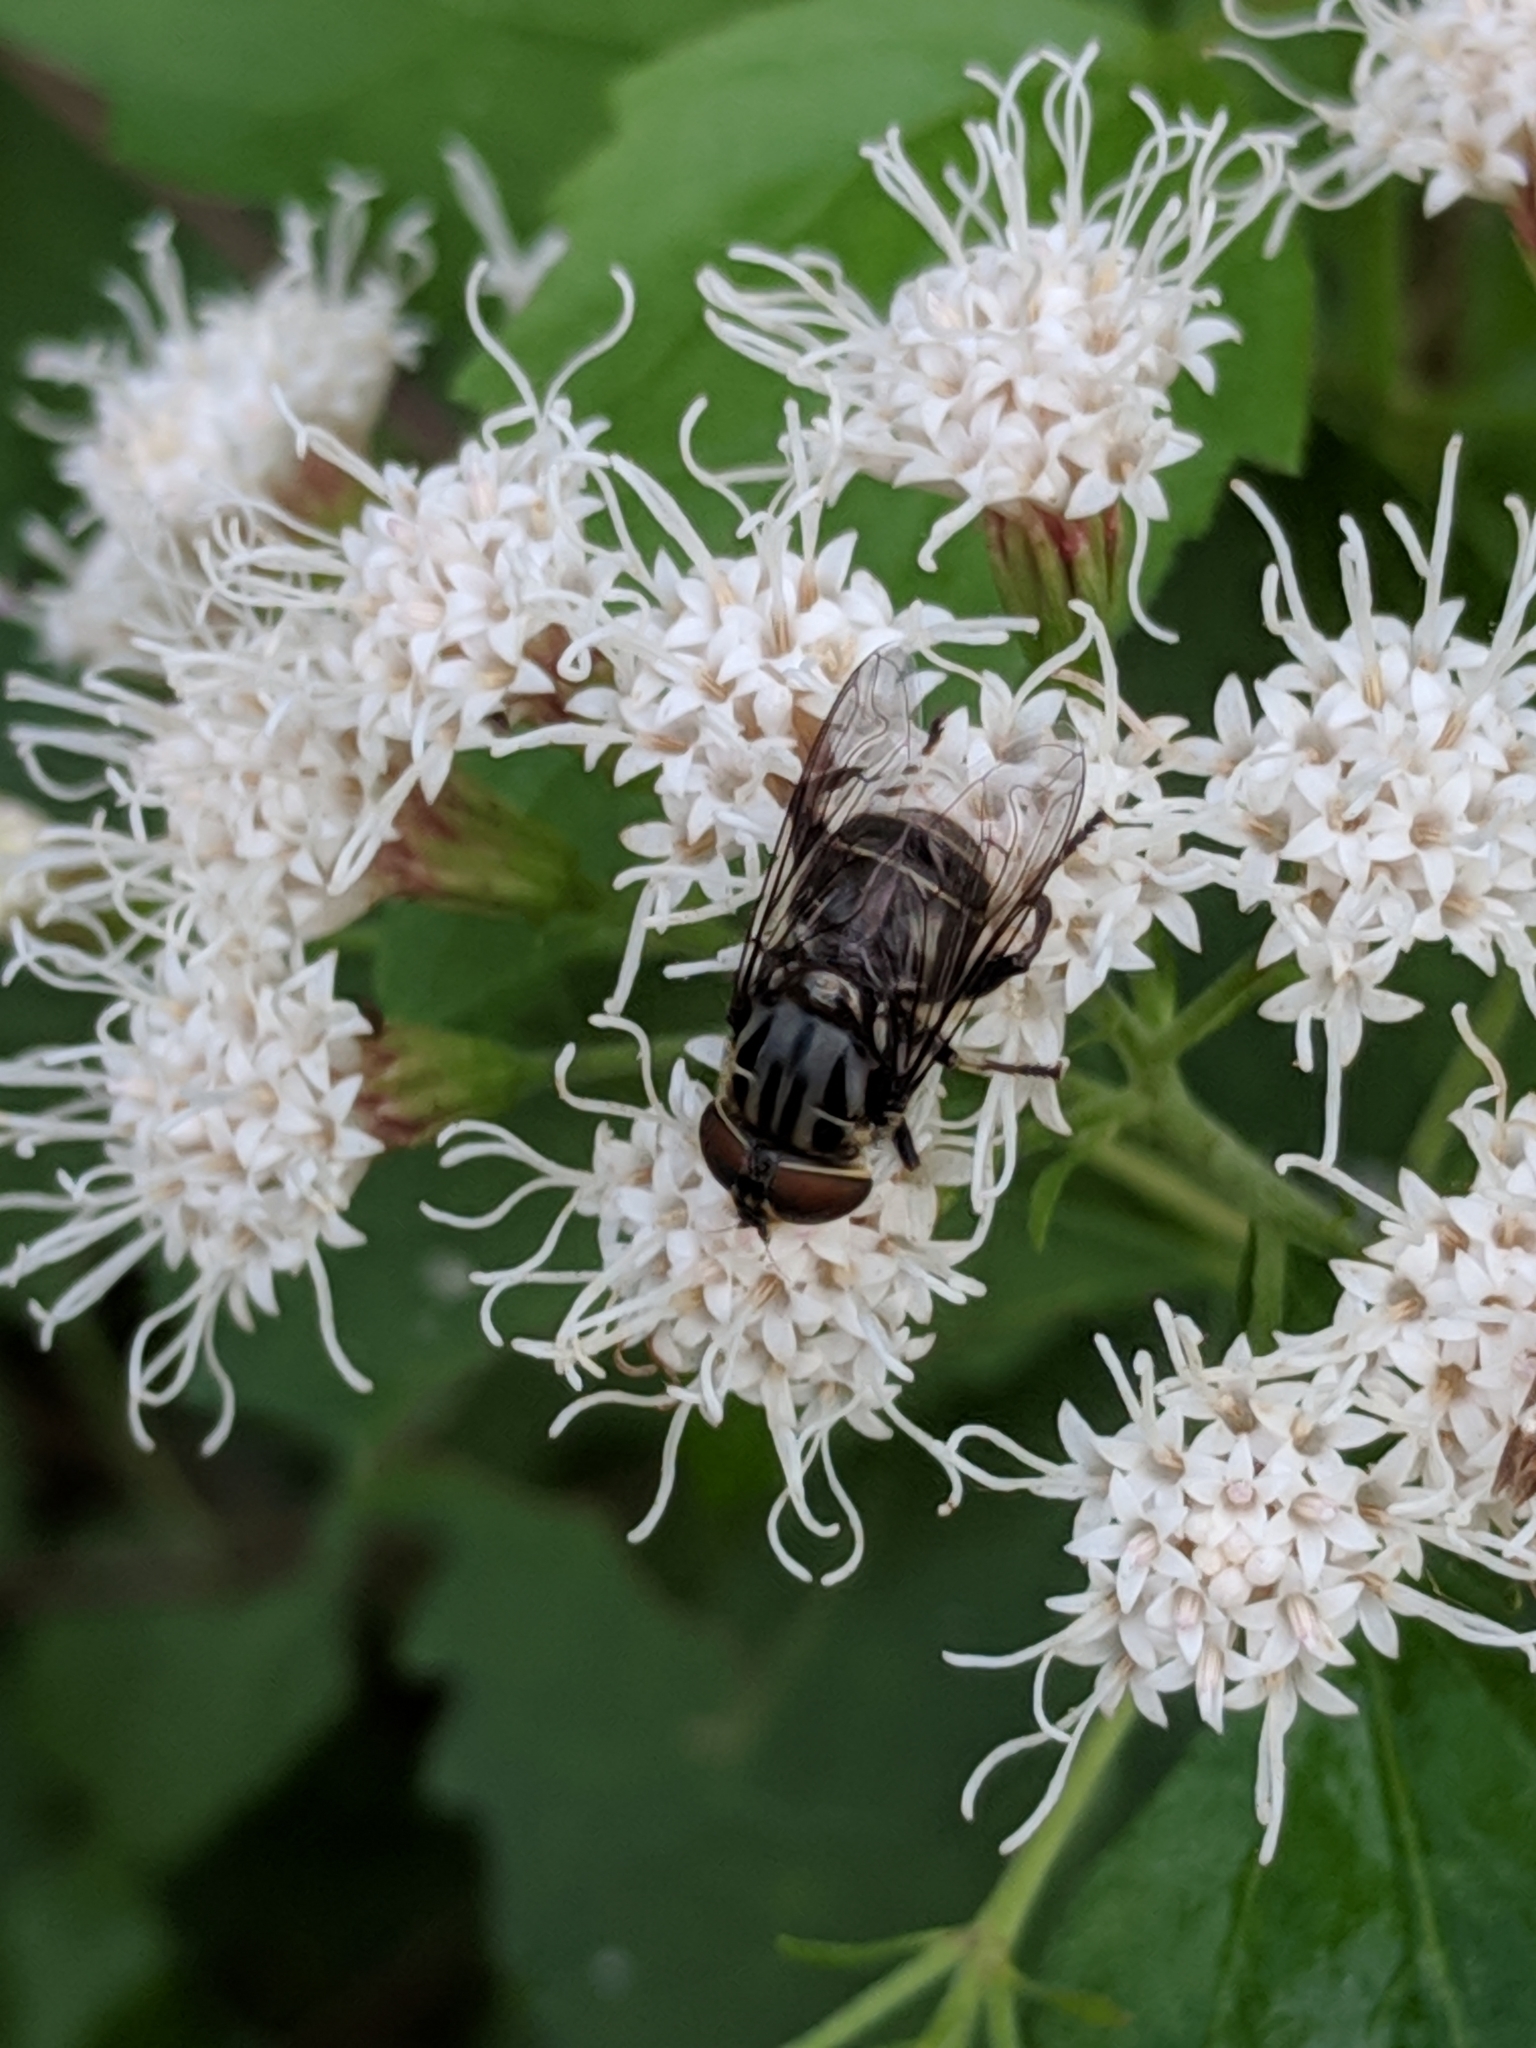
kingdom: Animalia
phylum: Arthropoda
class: Insecta
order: Diptera
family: Syrphidae
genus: Palpada
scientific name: Palpada furcata
